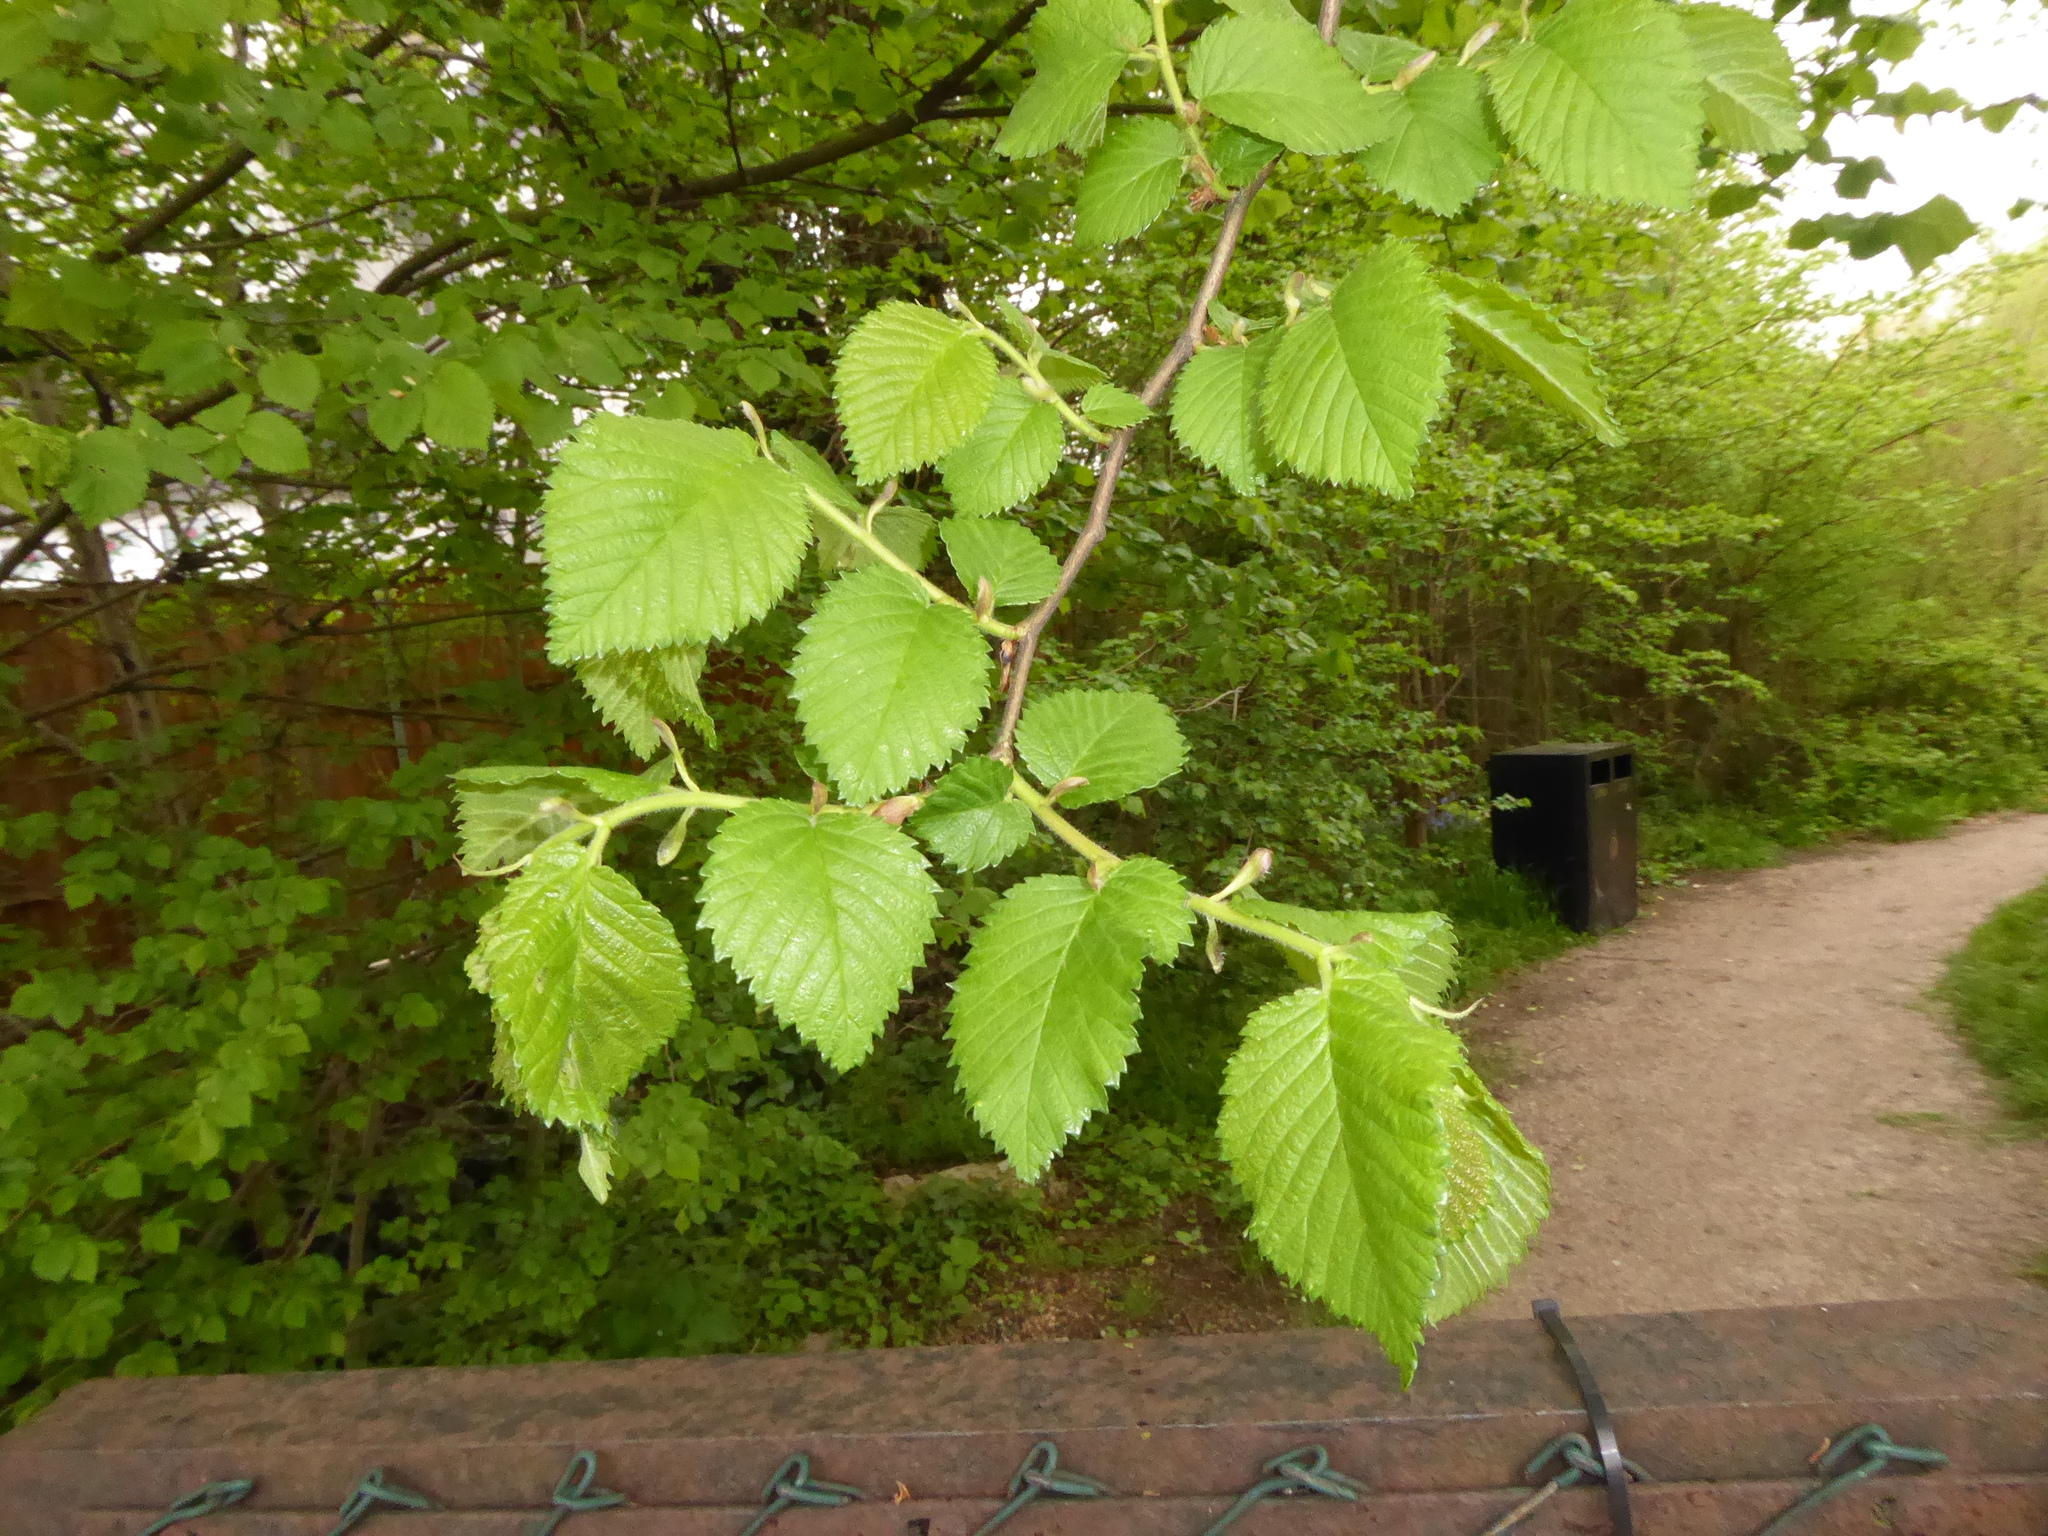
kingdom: Plantae
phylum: Tracheophyta
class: Magnoliopsida
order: Rosales
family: Ulmaceae
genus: Ulmus
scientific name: Ulmus
